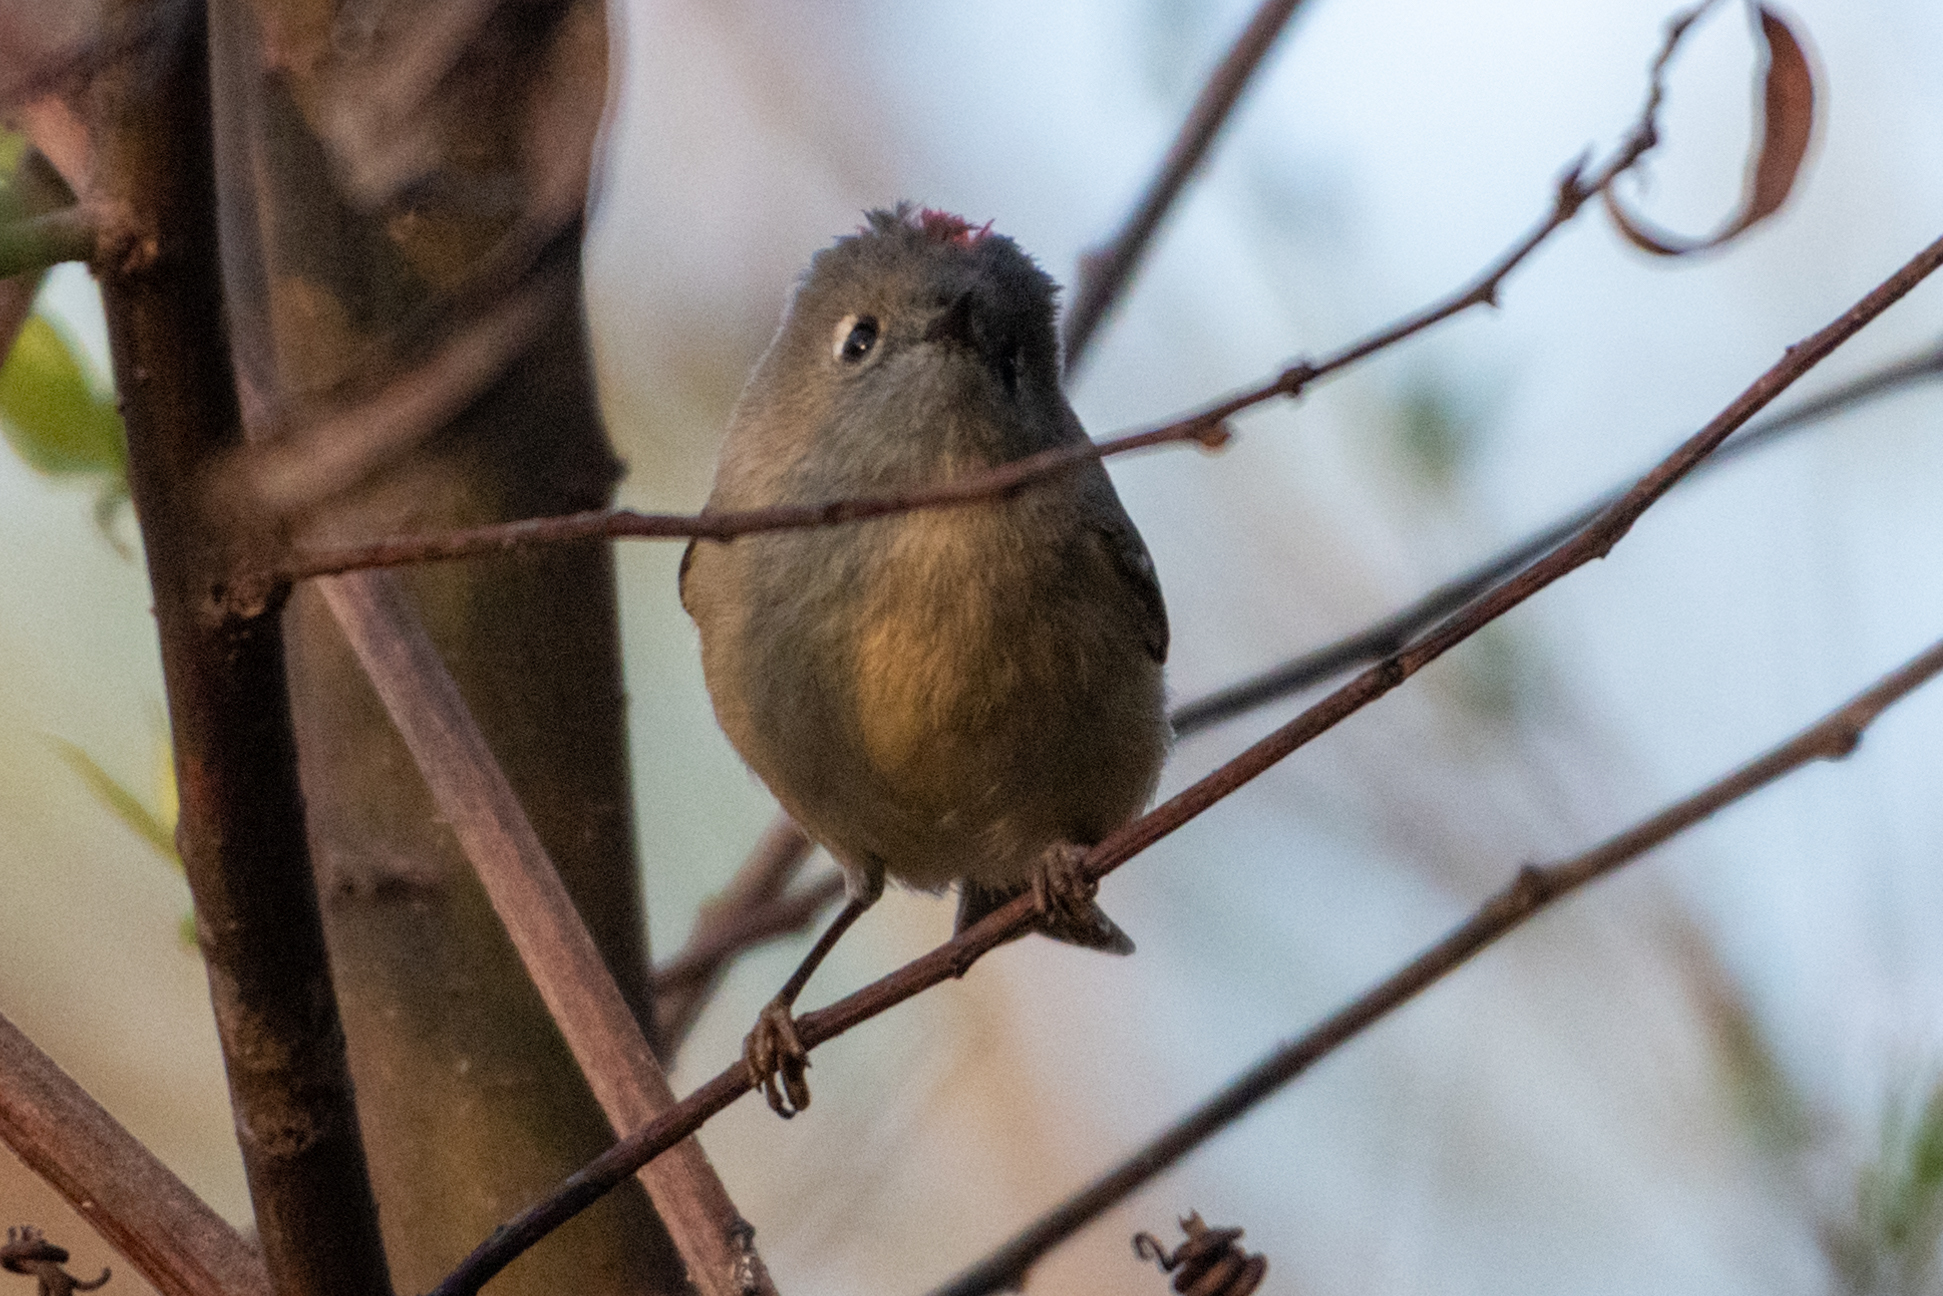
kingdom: Animalia
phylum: Chordata
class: Aves
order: Passeriformes
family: Regulidae
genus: Regulus
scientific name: Regulus calendula
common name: Ruby-crowned kinglet
